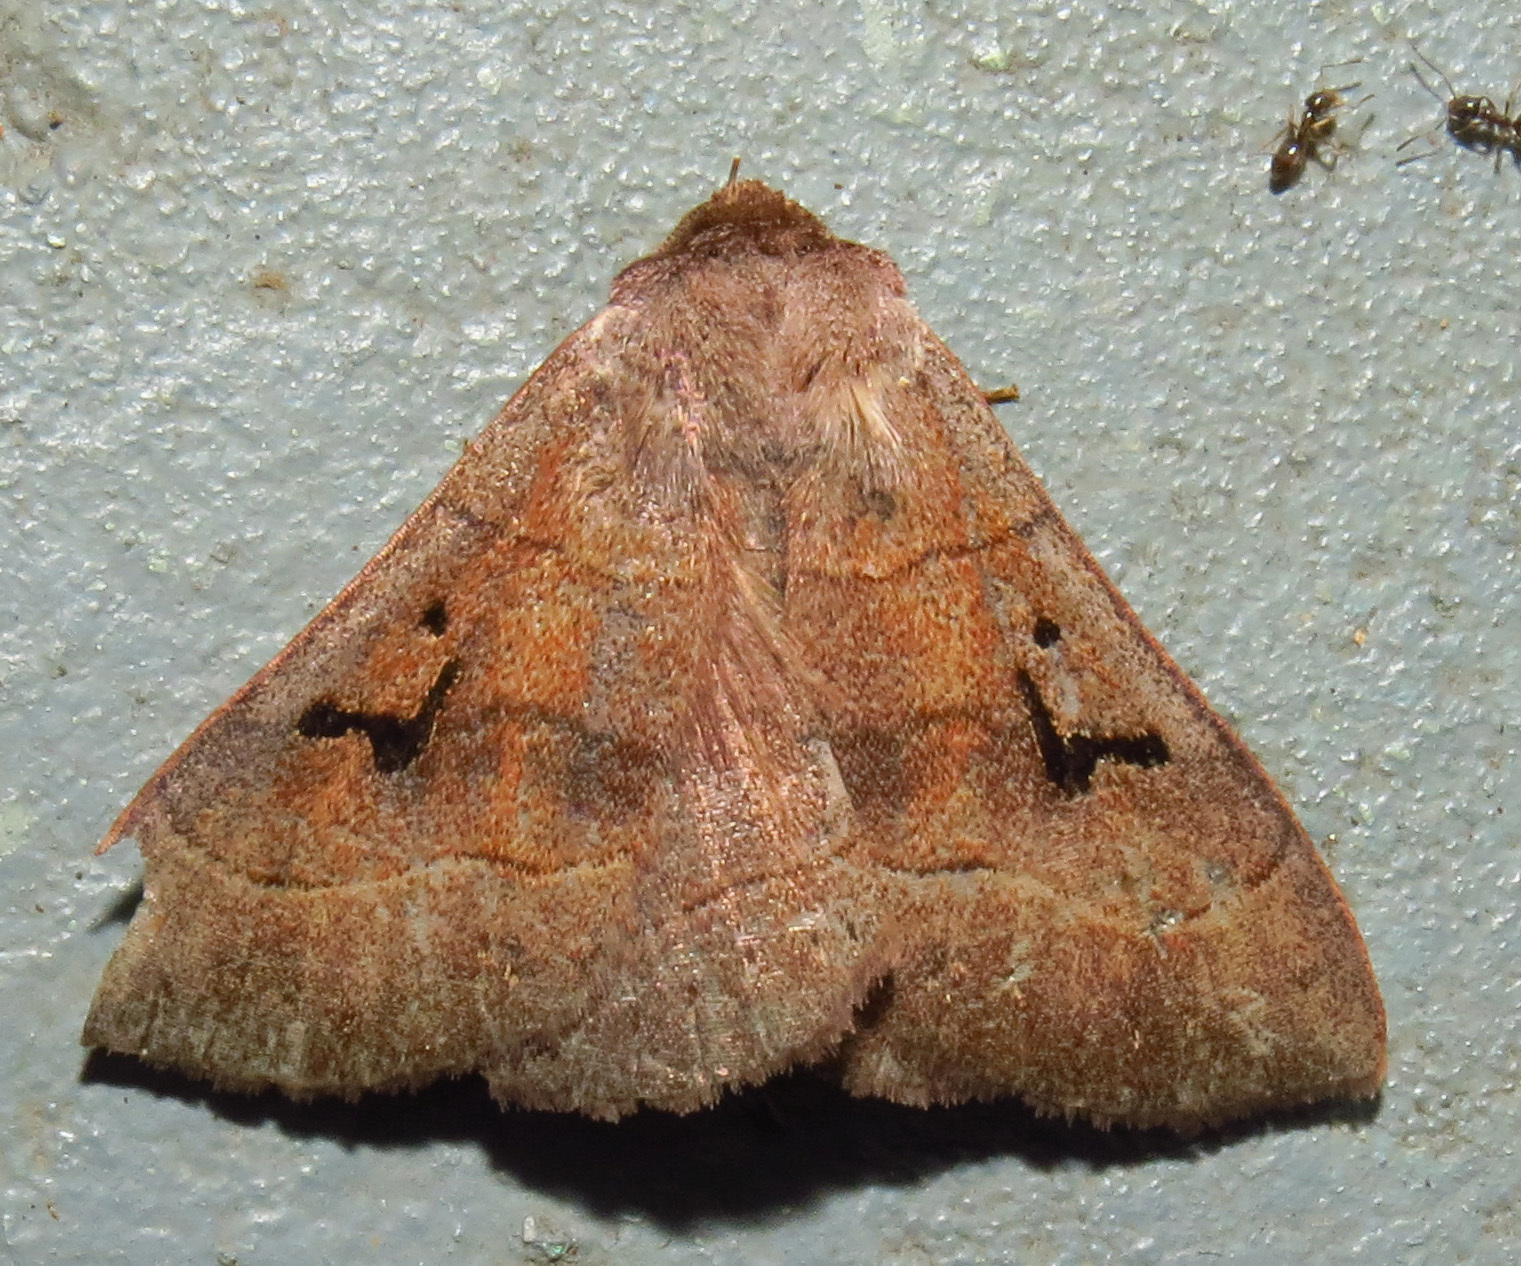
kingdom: Animalia
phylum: Arthropoda
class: Insecta
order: Lepidoptera
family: Erebidae
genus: Panopoda
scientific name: Panopoda carneicosta
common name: Brown panopoda moth
